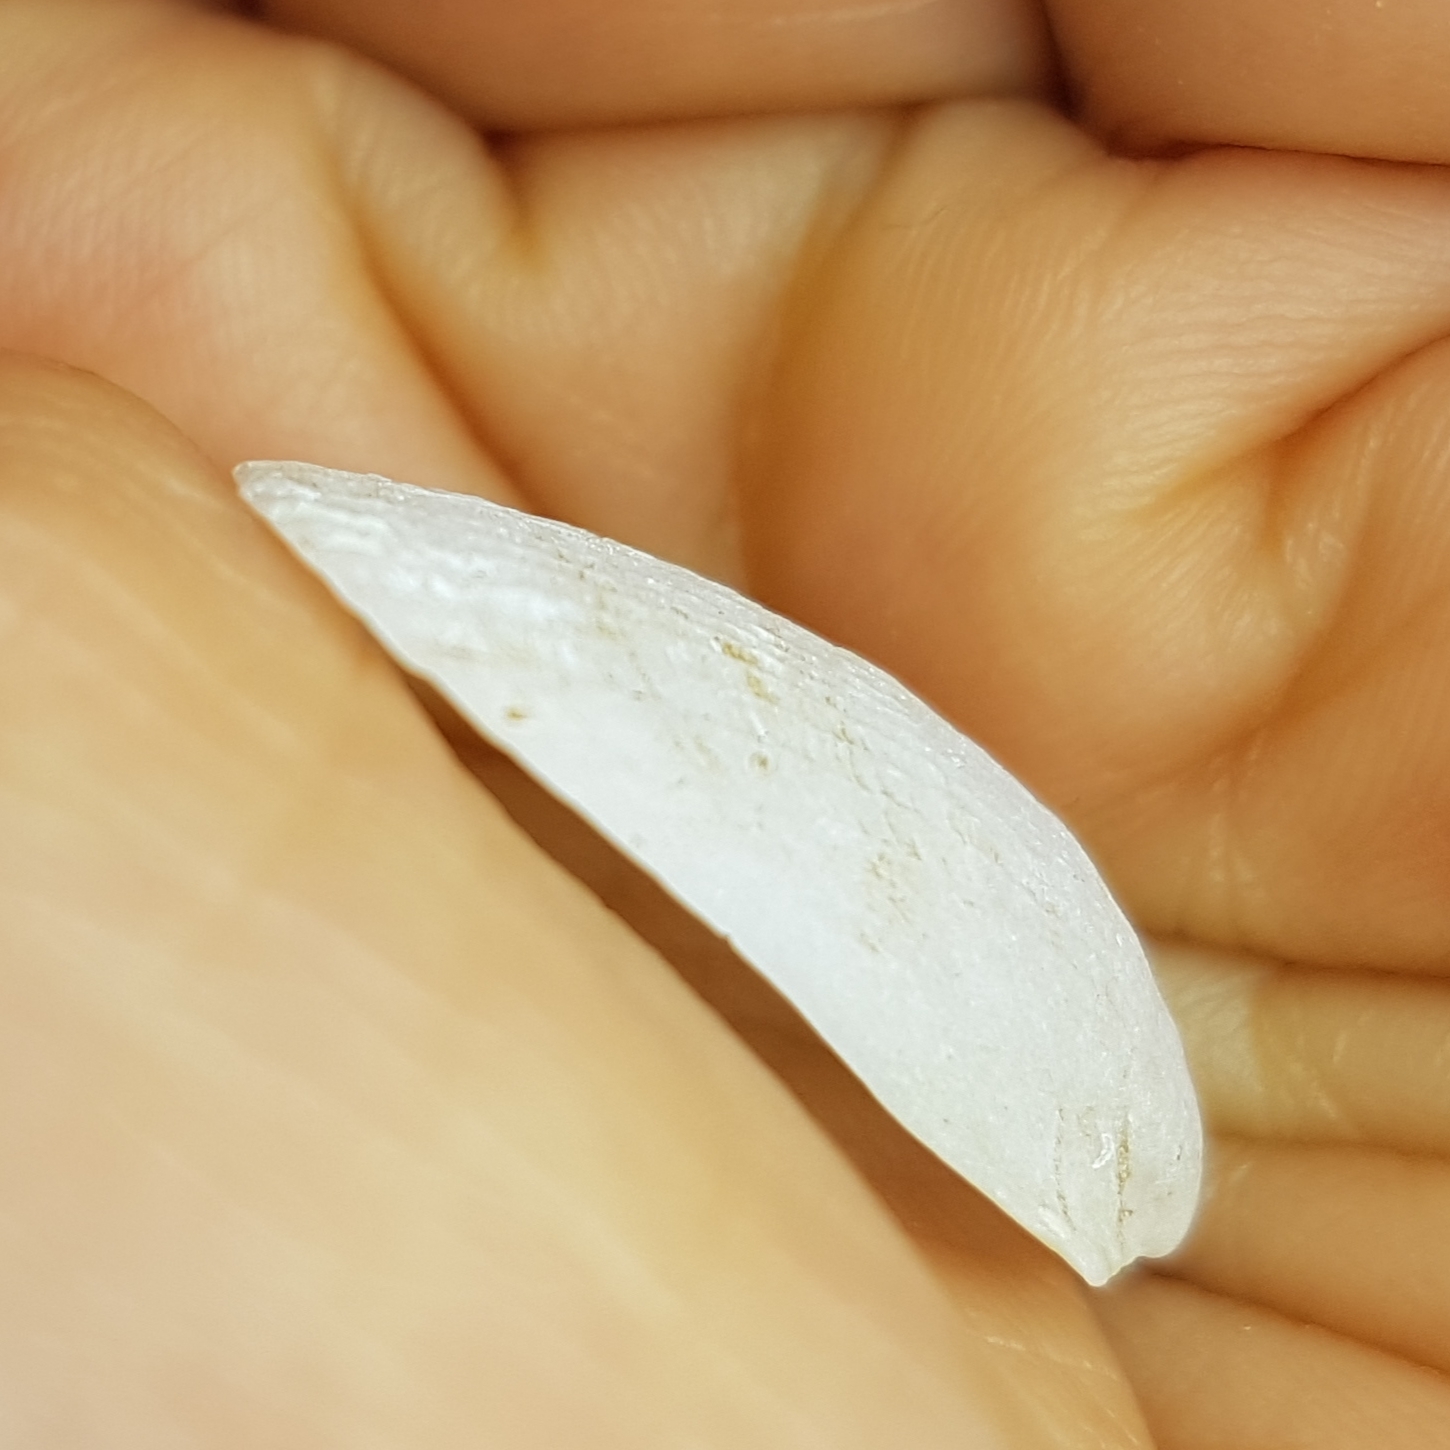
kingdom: Animalia
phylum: Mollusca
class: Bivalvia
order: Limida
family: Limidae
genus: Limaria
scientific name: Limaria tuberculata
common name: File shell
